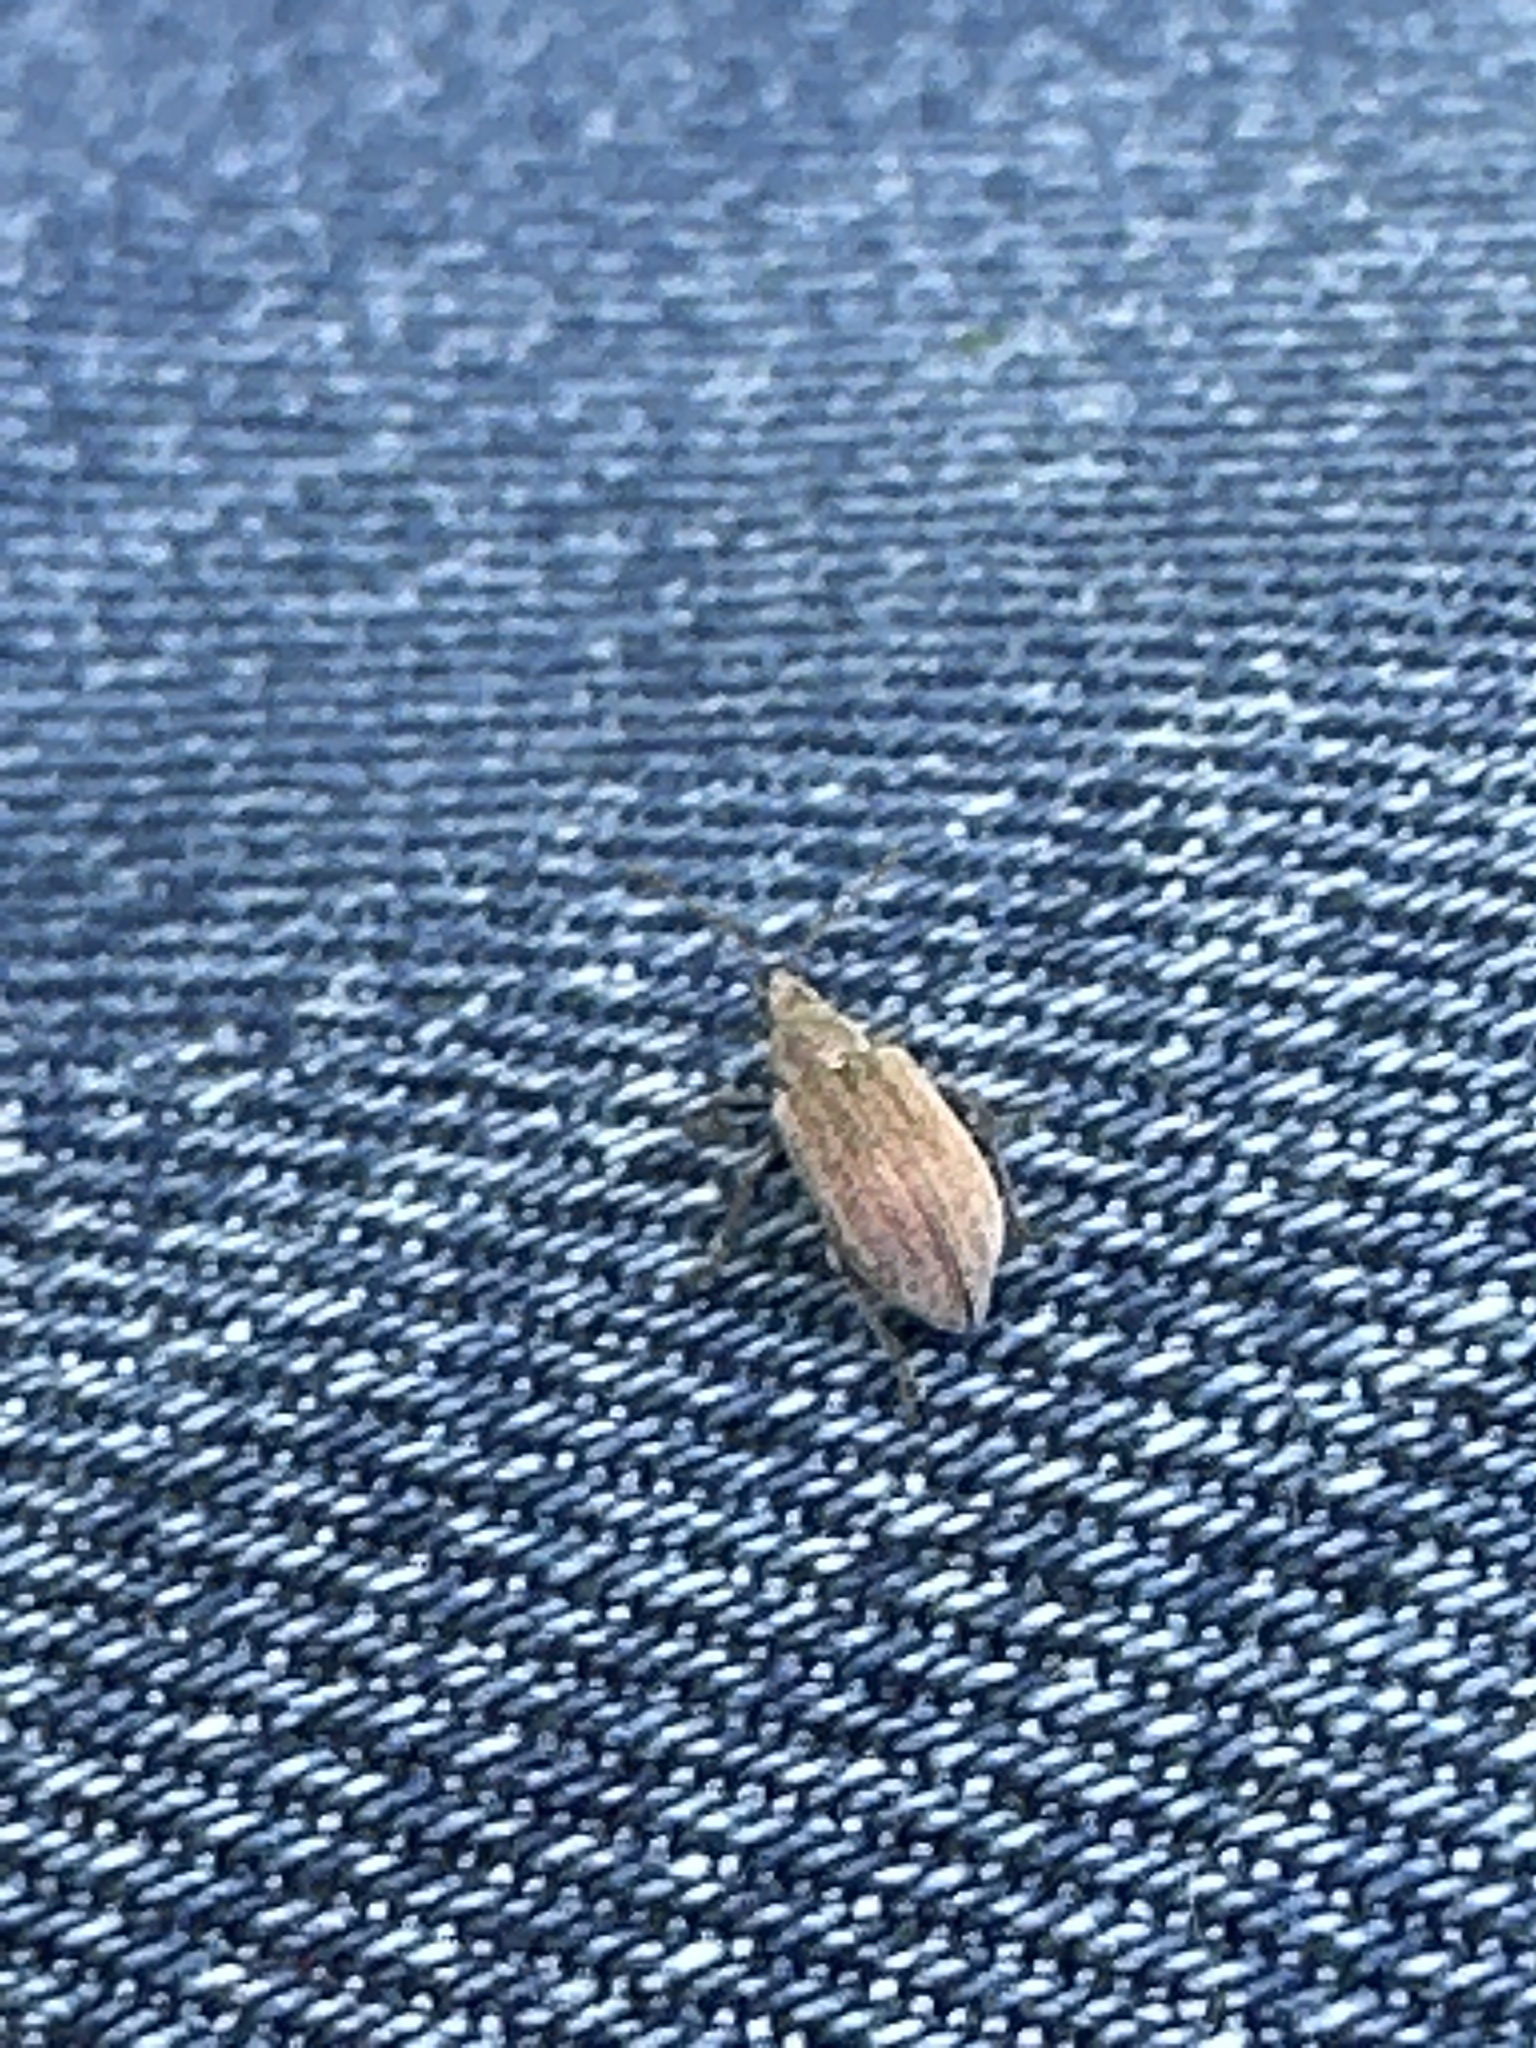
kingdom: Animalia
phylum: Arthropoda
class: Insecta
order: Coleoptera
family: Curculionidae
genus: Phyllobius
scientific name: Phyllobius pyri
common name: Common leaf weevil
